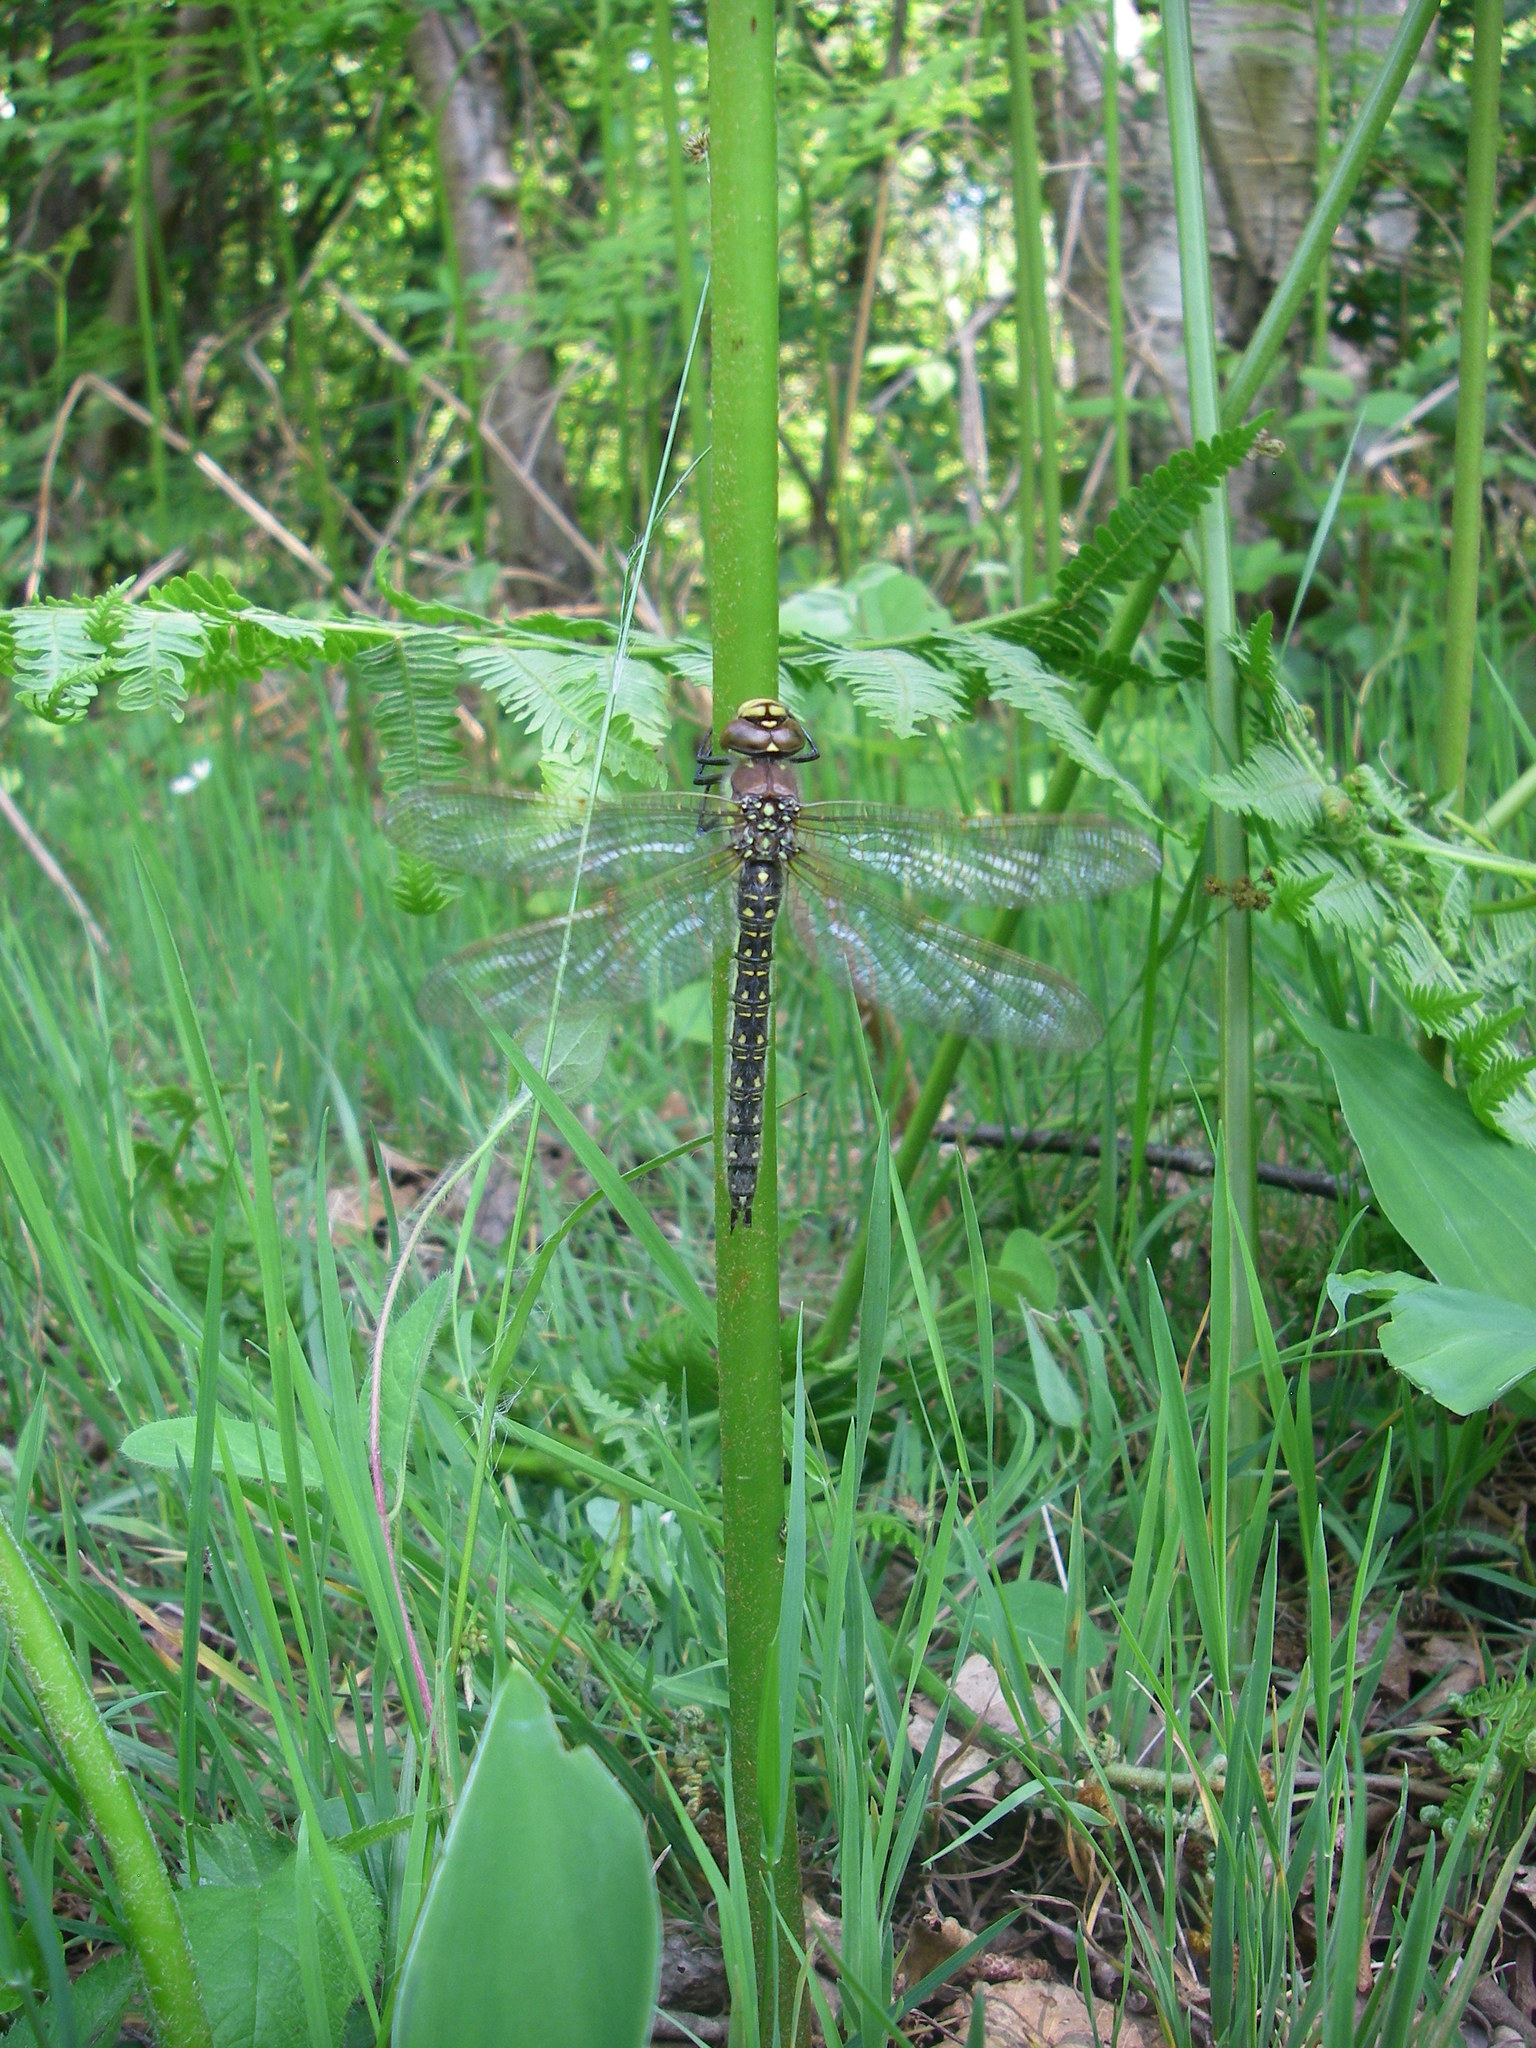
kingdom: Animalia
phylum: Arthropoda
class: Insecta
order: Odonata
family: Aeshnidae
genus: Brachytron
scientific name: Brachytron pratense
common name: Hairy hawker
